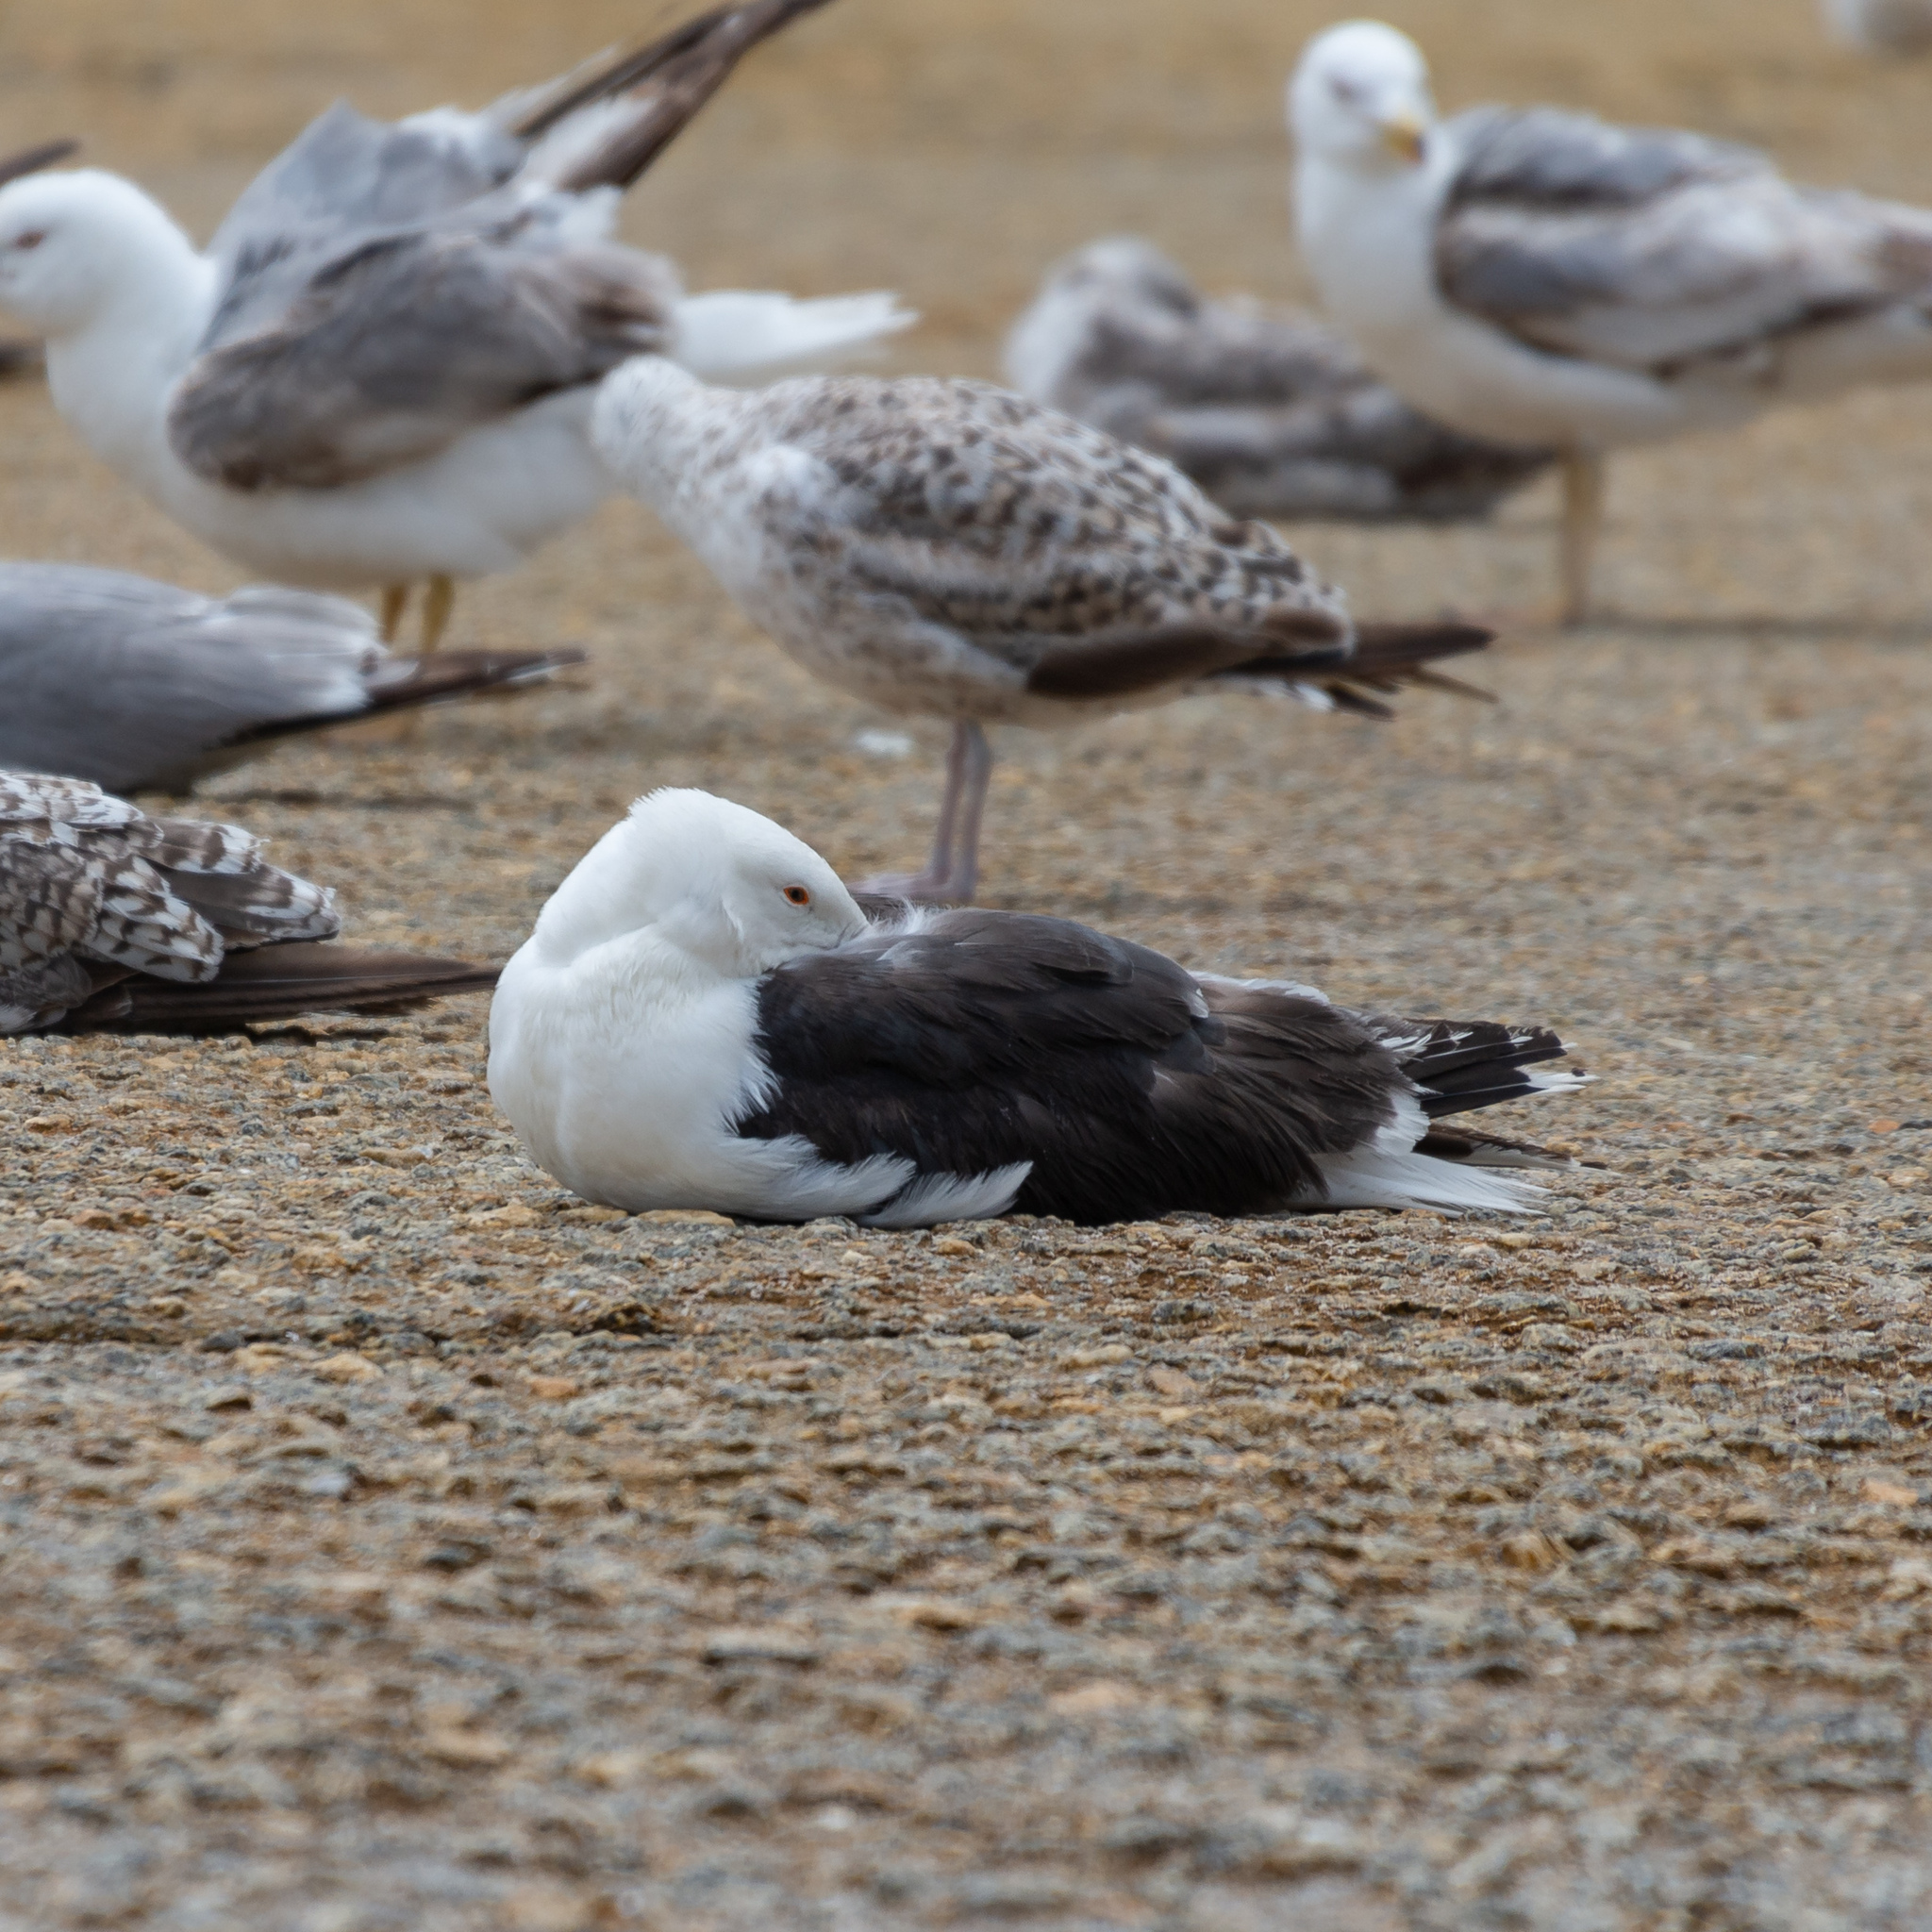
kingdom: Animalia
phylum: Chordata
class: Aves
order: Charadriiformes
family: Laridae
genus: Larus
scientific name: Larus marinus
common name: Great black-backed gull
